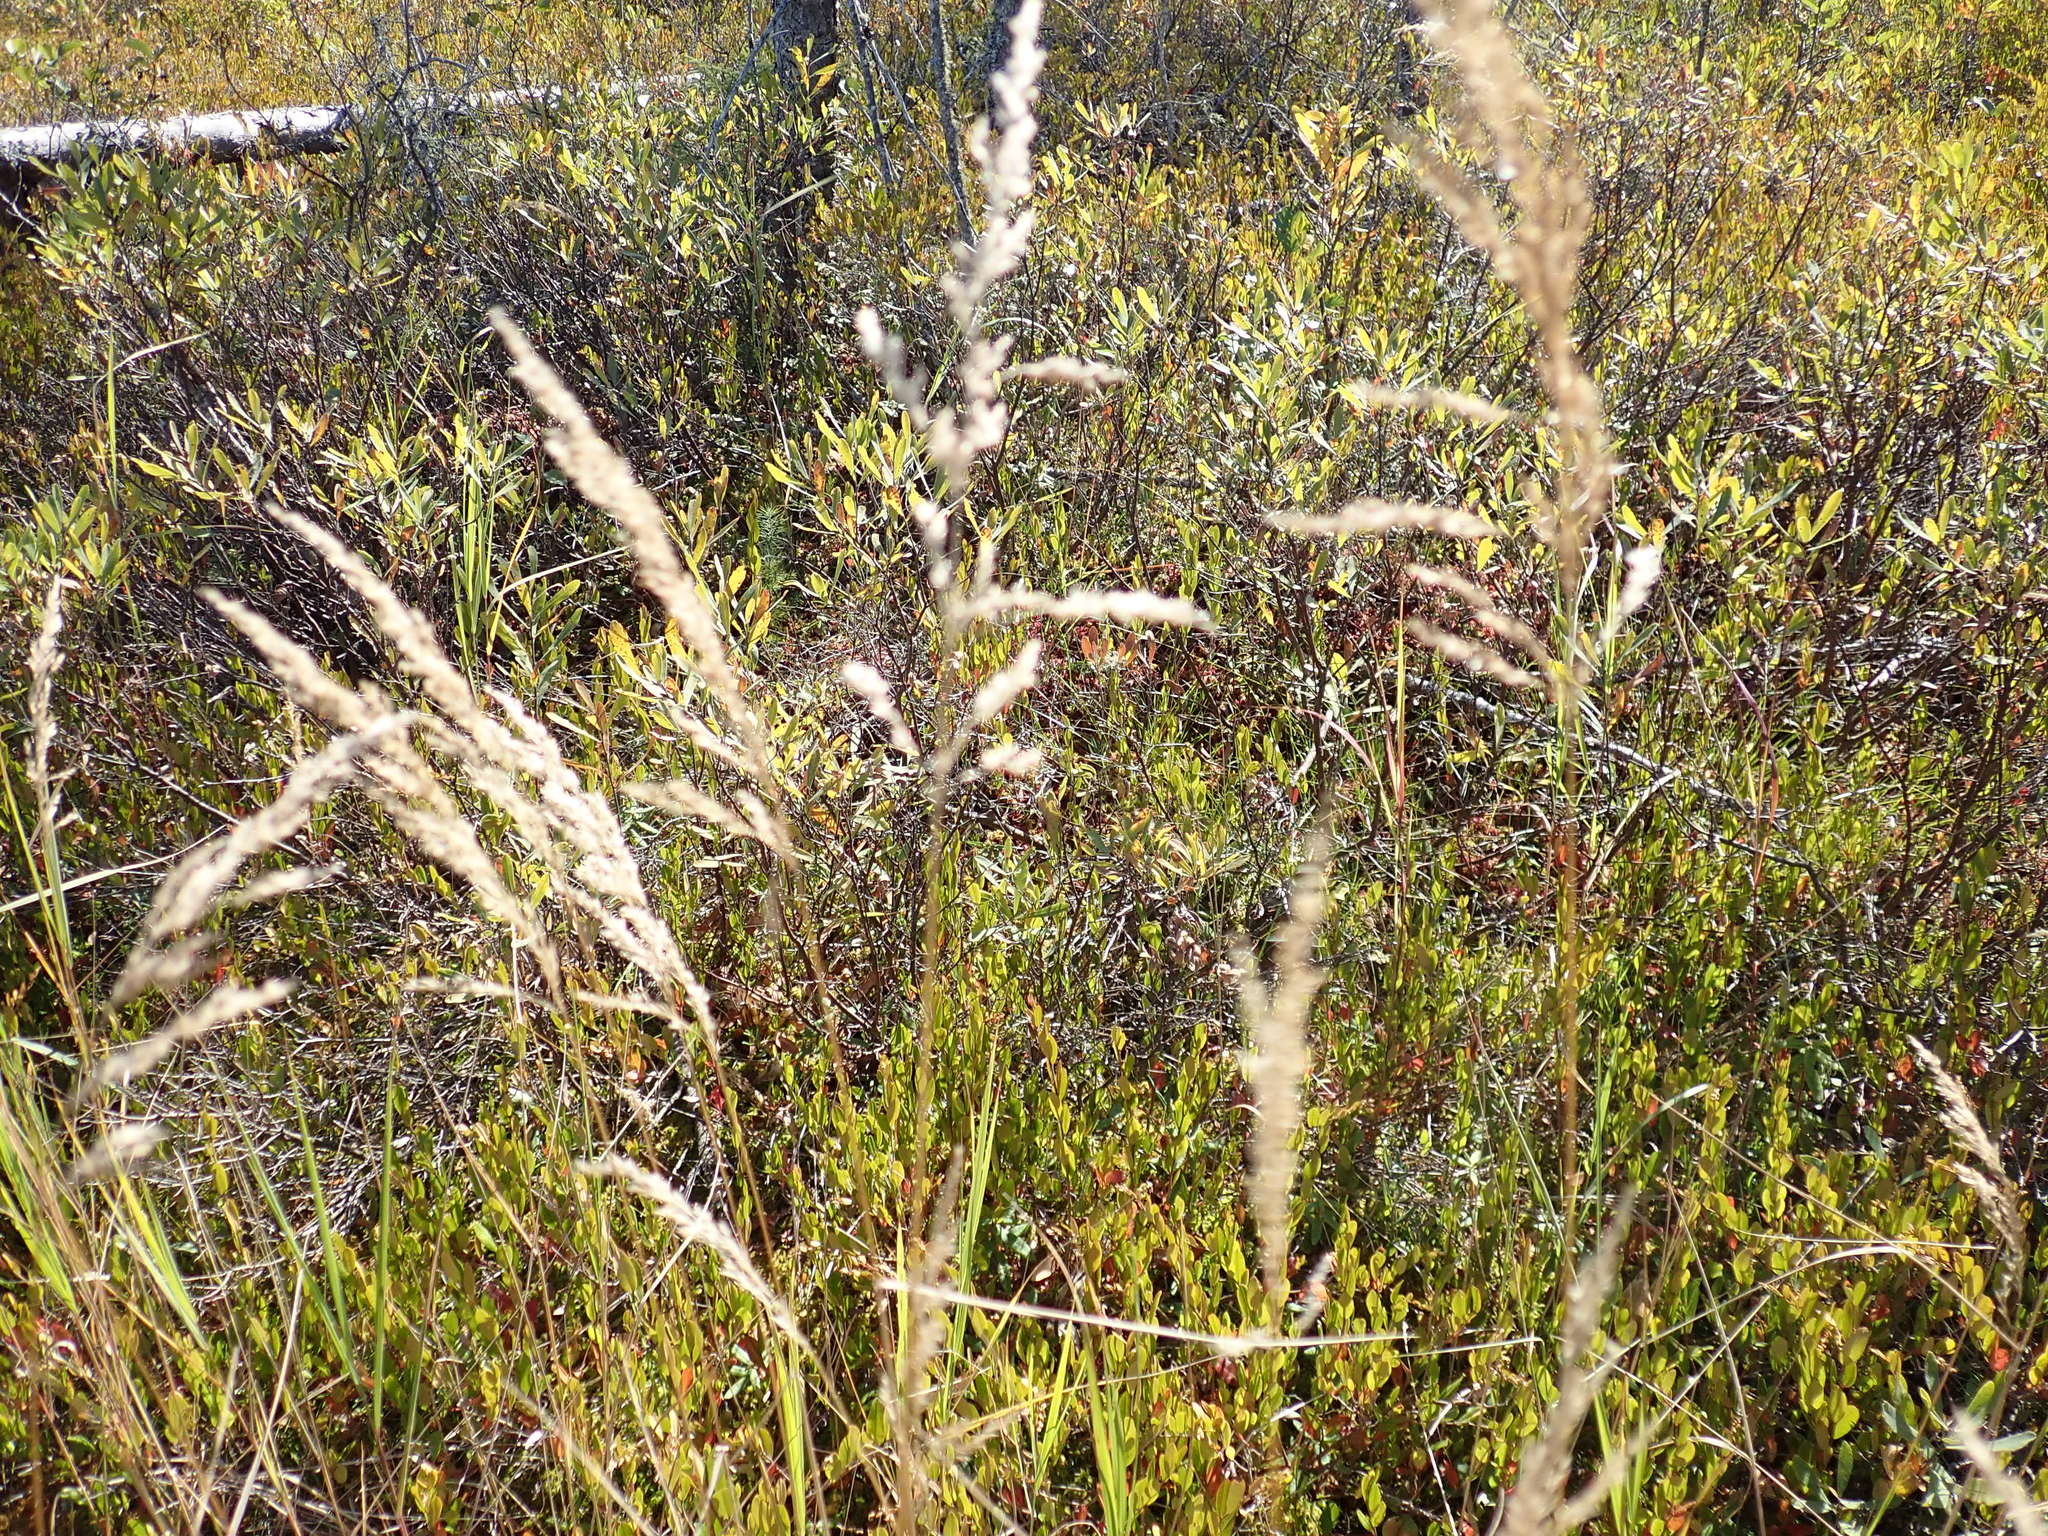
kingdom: Plantae
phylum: Tracheophyta
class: Liliopsida
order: Poales
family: Poaceae
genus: Calamagrostis
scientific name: Calamagrostis canadensis
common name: Canada bluejoint
